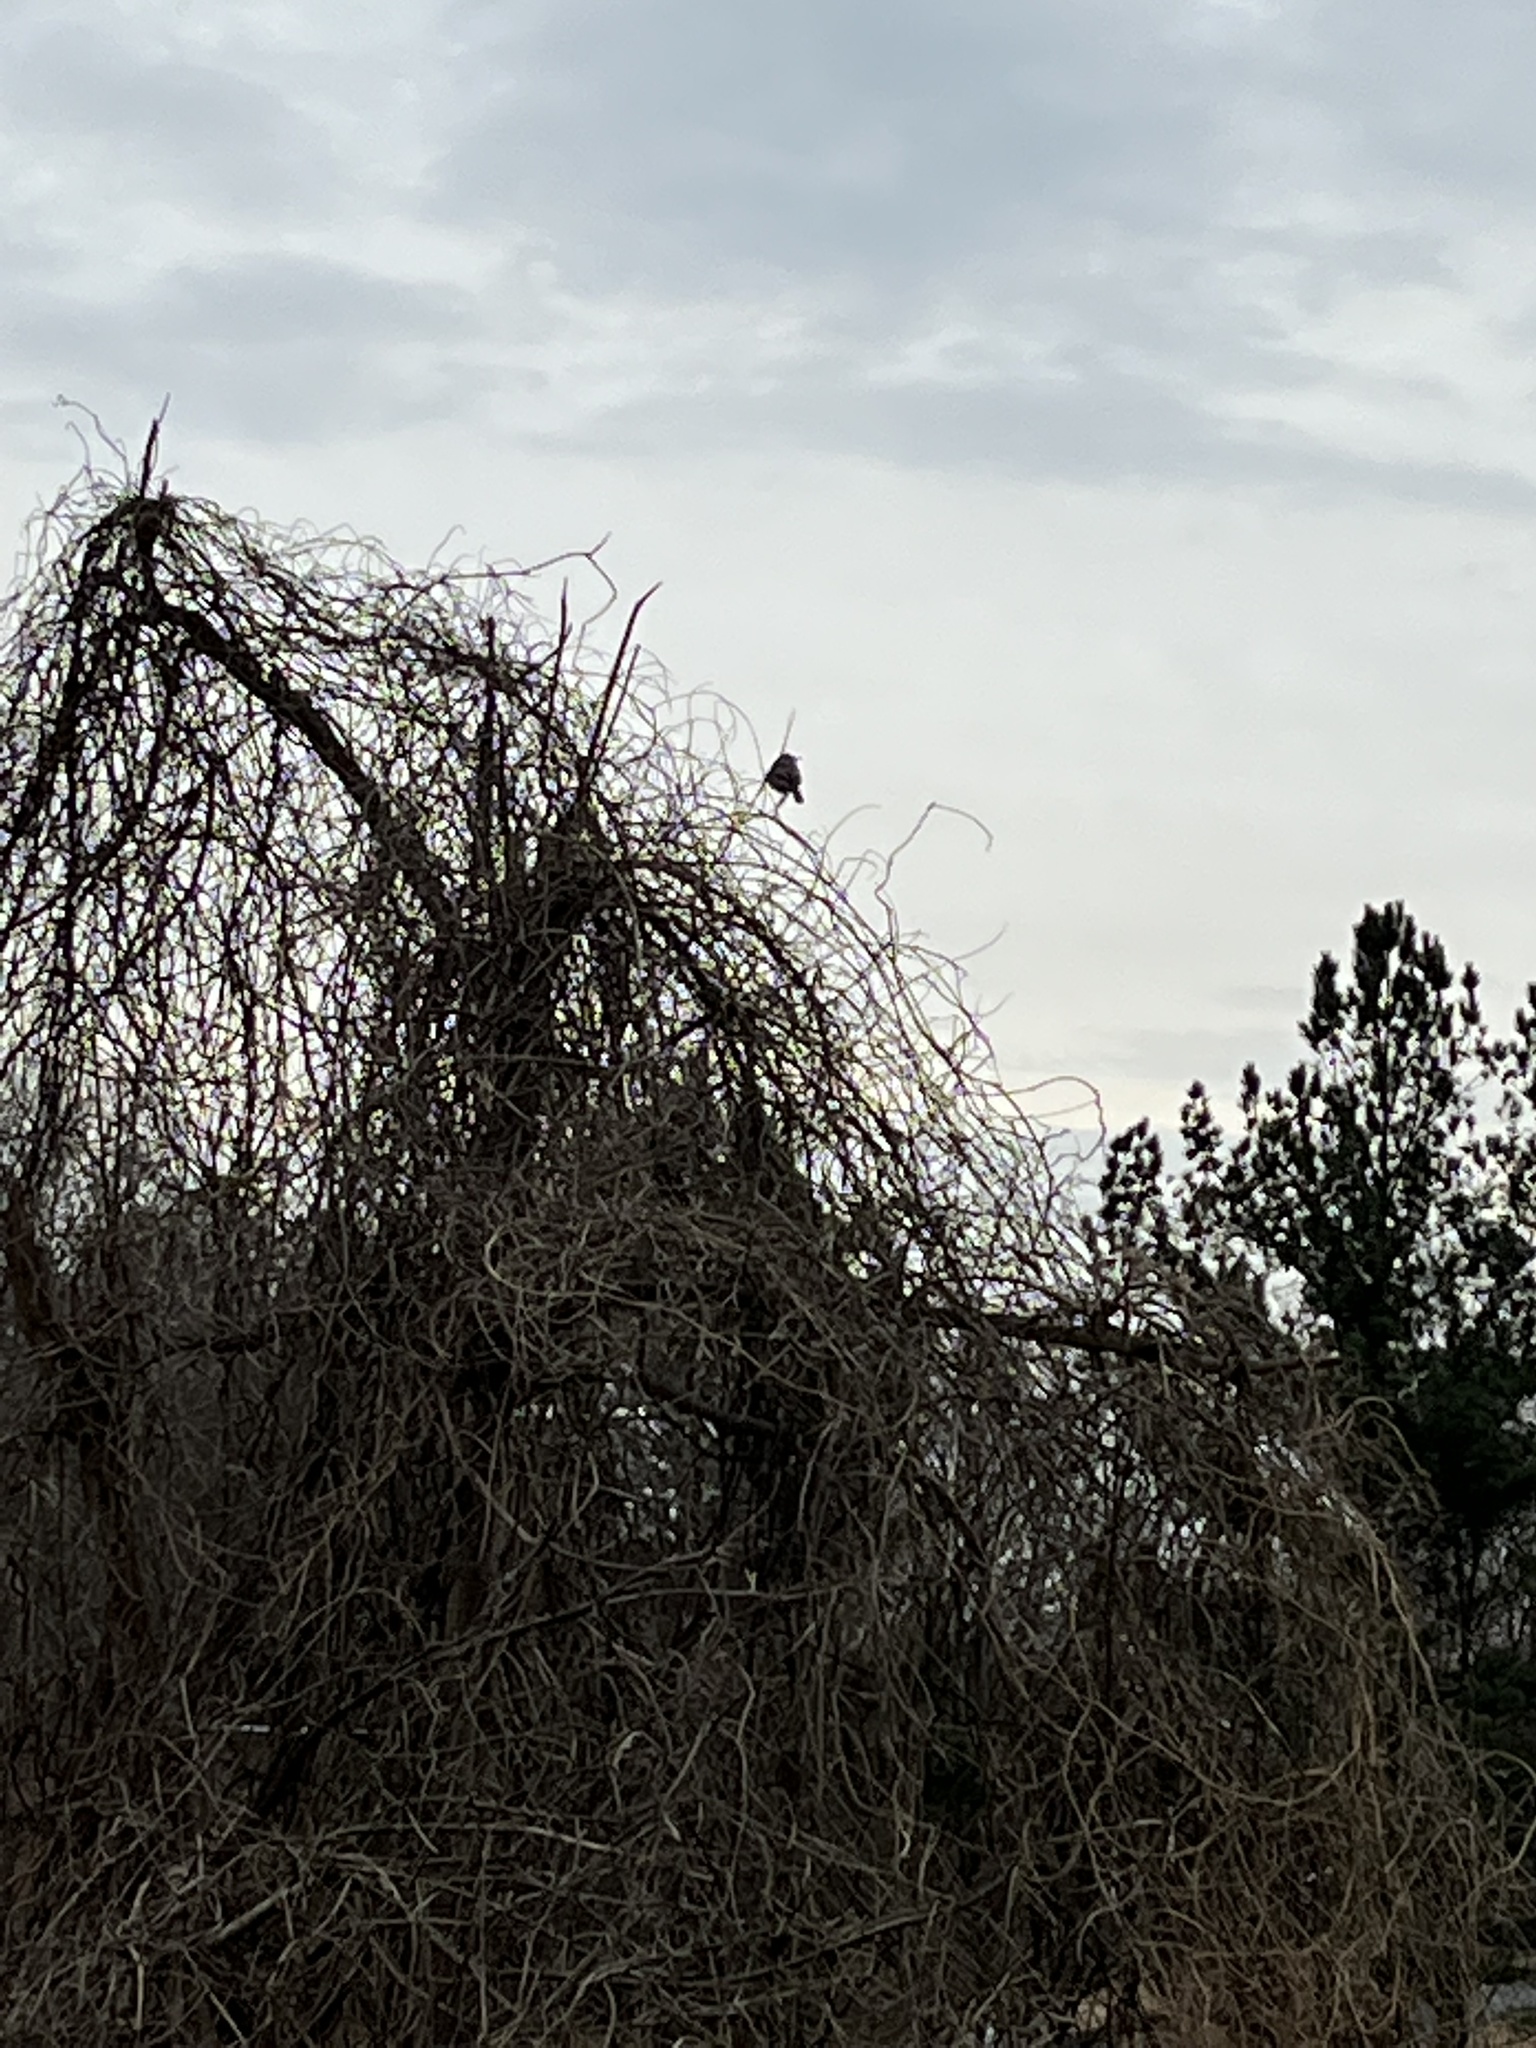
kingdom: Animalia
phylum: Chordata
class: Aves
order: Passeriformes
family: Mimidae
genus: Mimus
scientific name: Mimus polyglottos
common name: Northern mockingbird
